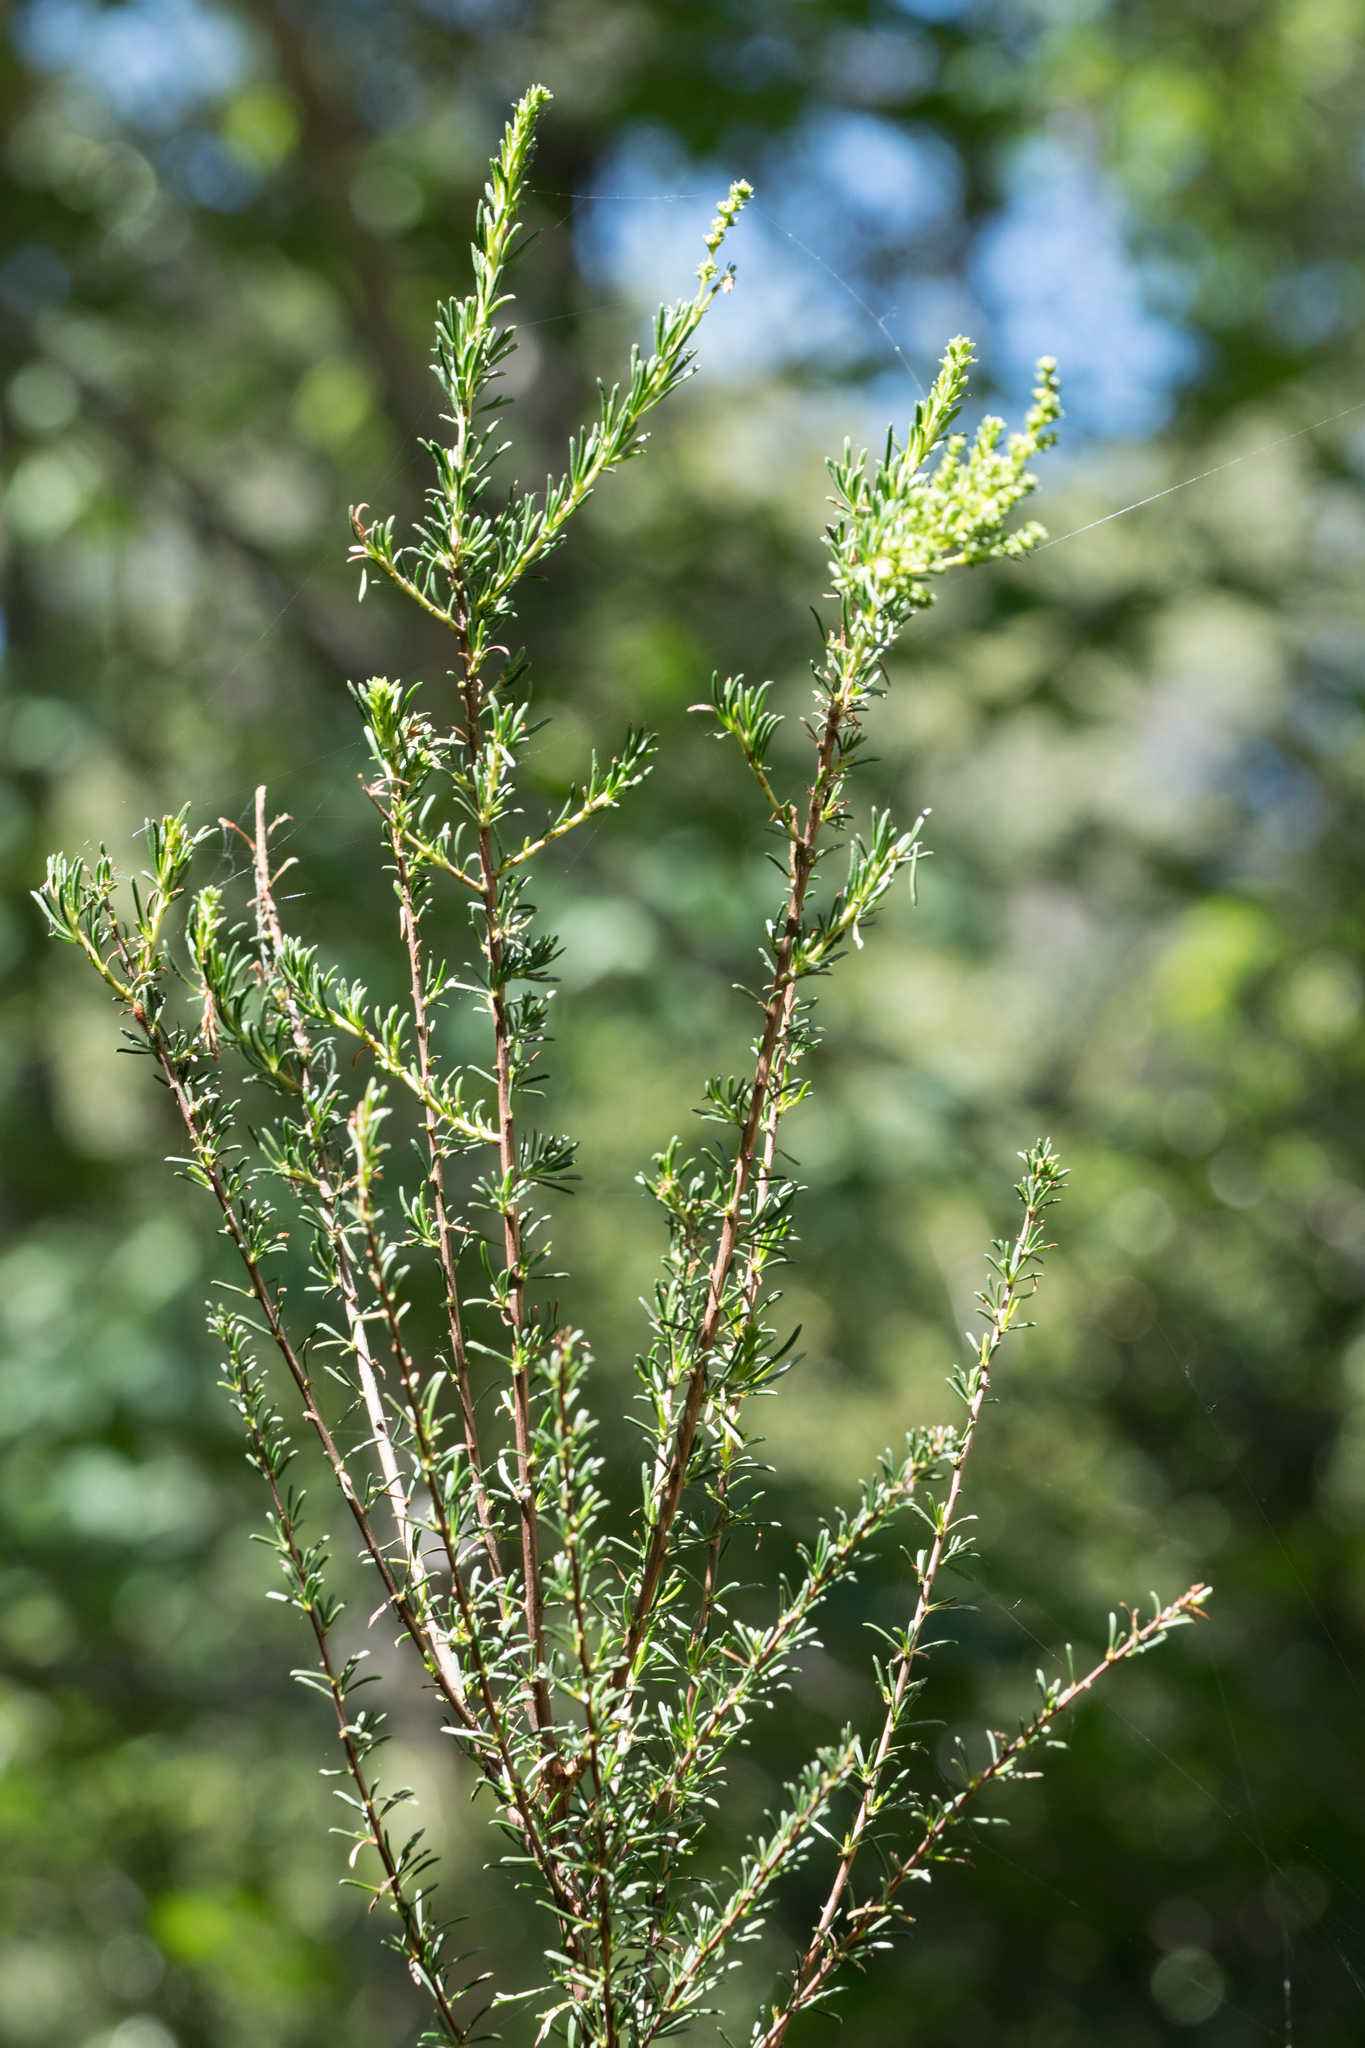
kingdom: Plantae
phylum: Tracheophyta
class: Magnoliopsida
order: Rosales
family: Rosaceae
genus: Adenostoma
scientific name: Adenostoma fasciculatum
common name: Chamise
